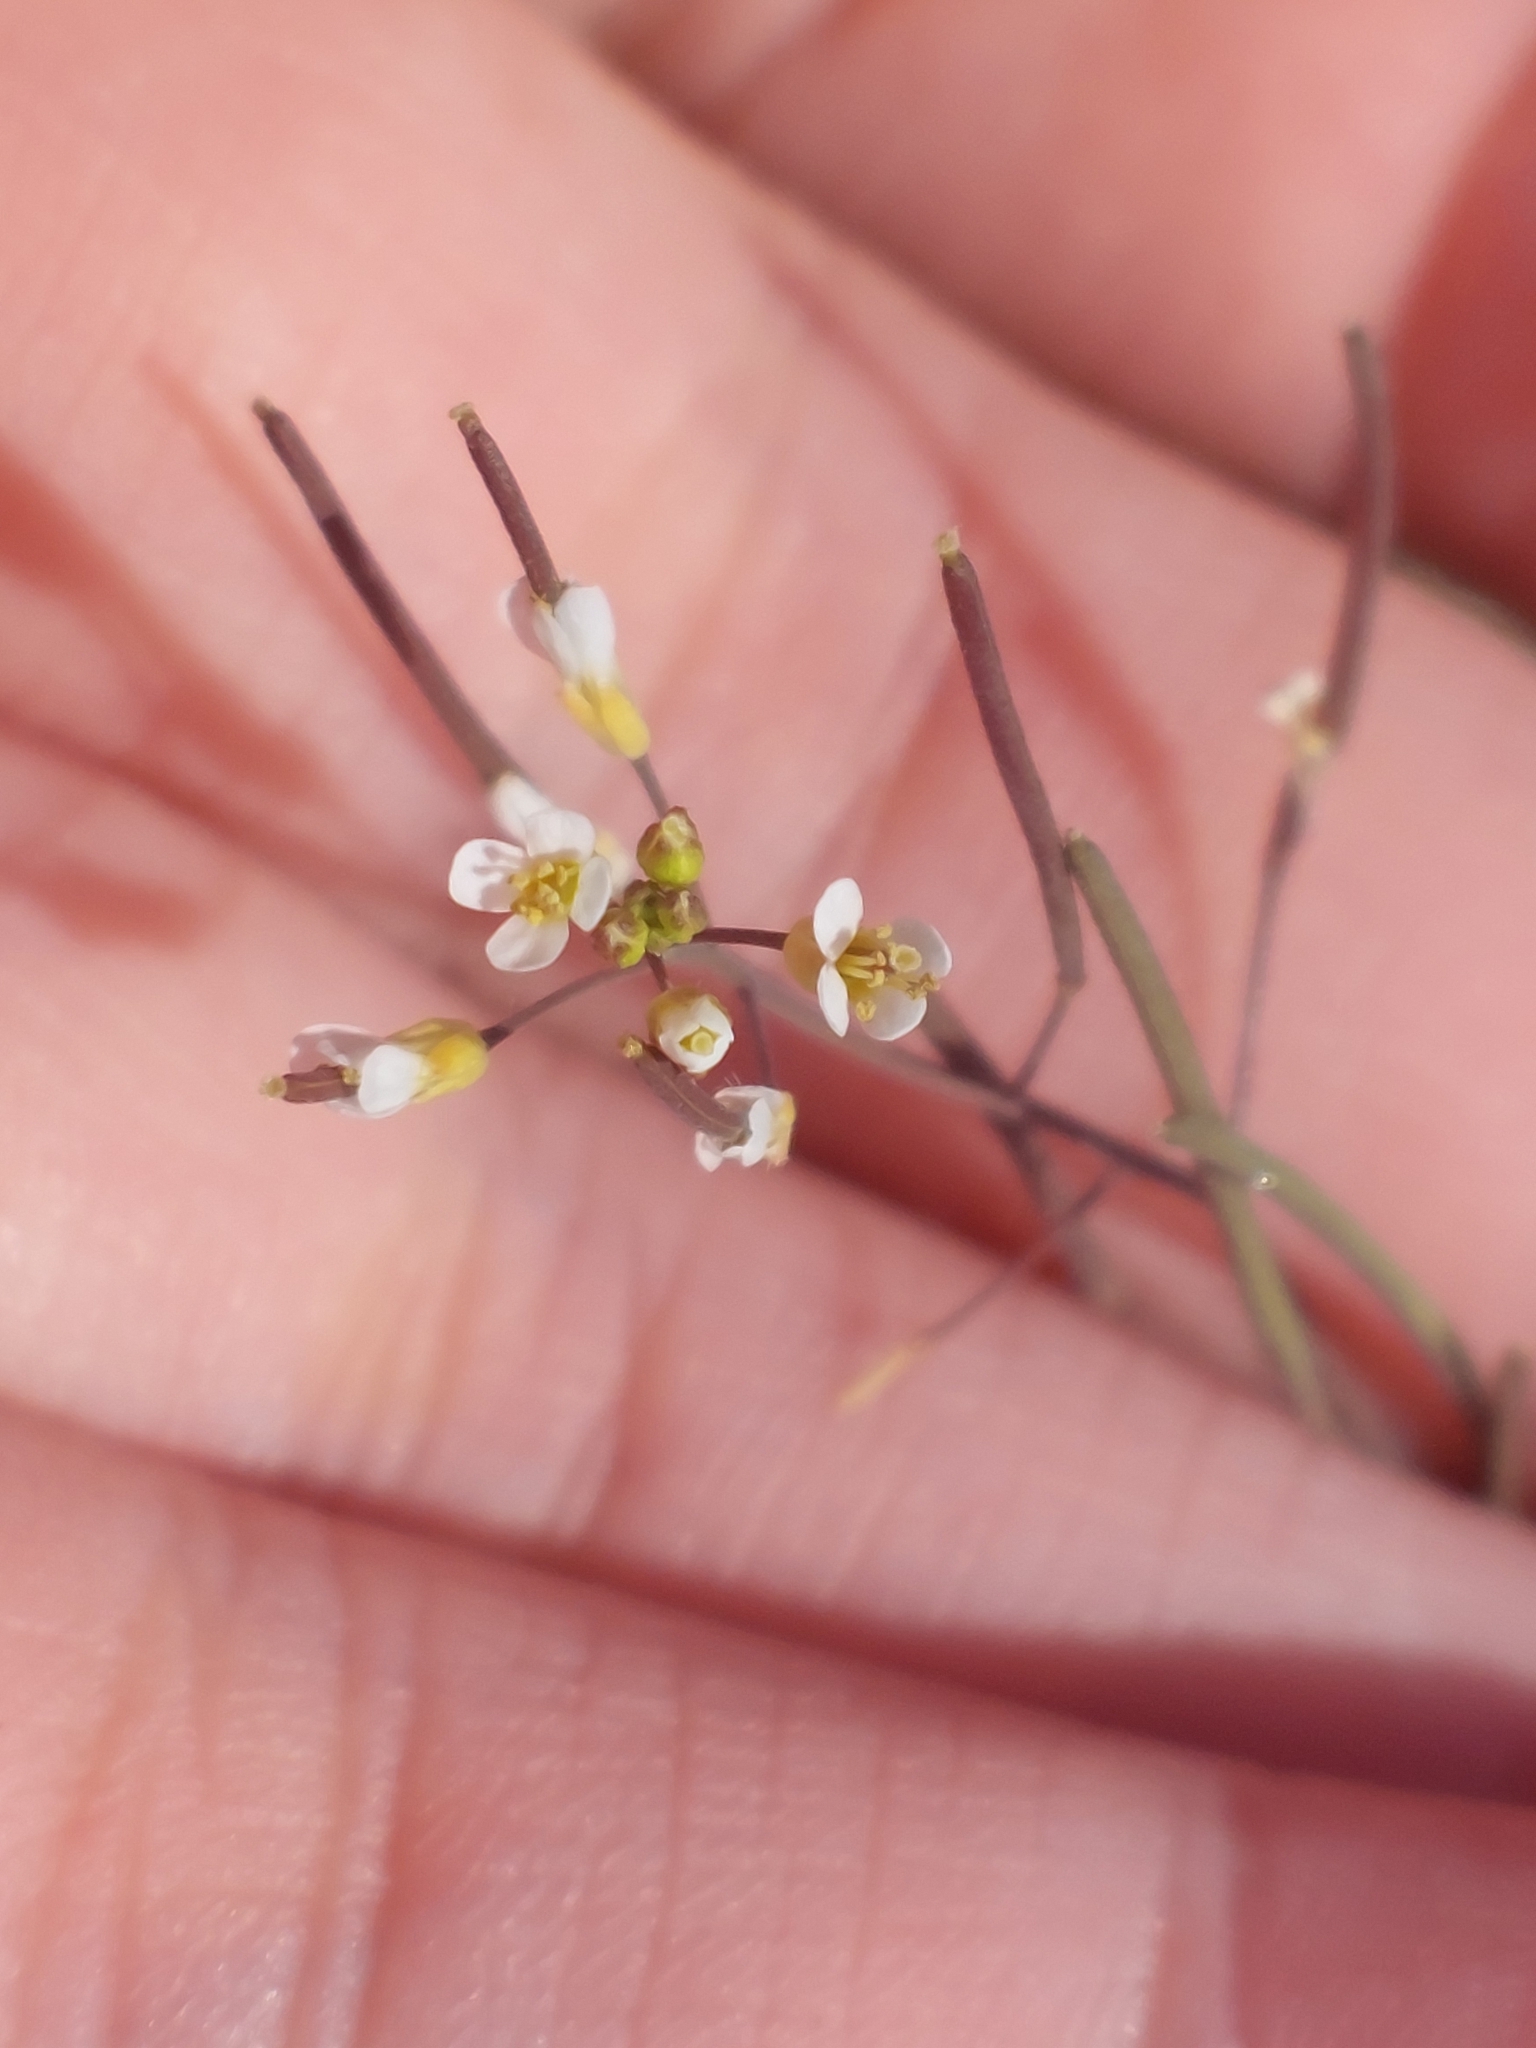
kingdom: Plantae
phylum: Tracheophyta
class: Magnoliopsida
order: Brassicales
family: Brassicaceae
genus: Arabidopsis
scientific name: Arabidopsis thaliana
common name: Thale cress
